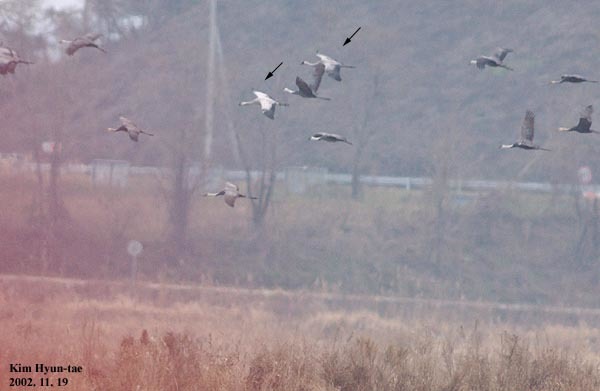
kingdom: Animalia
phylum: Chordata
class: Aves
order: Gruiformes
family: Gruidae
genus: Grus
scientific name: Grus monacha
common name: Hooded crane
